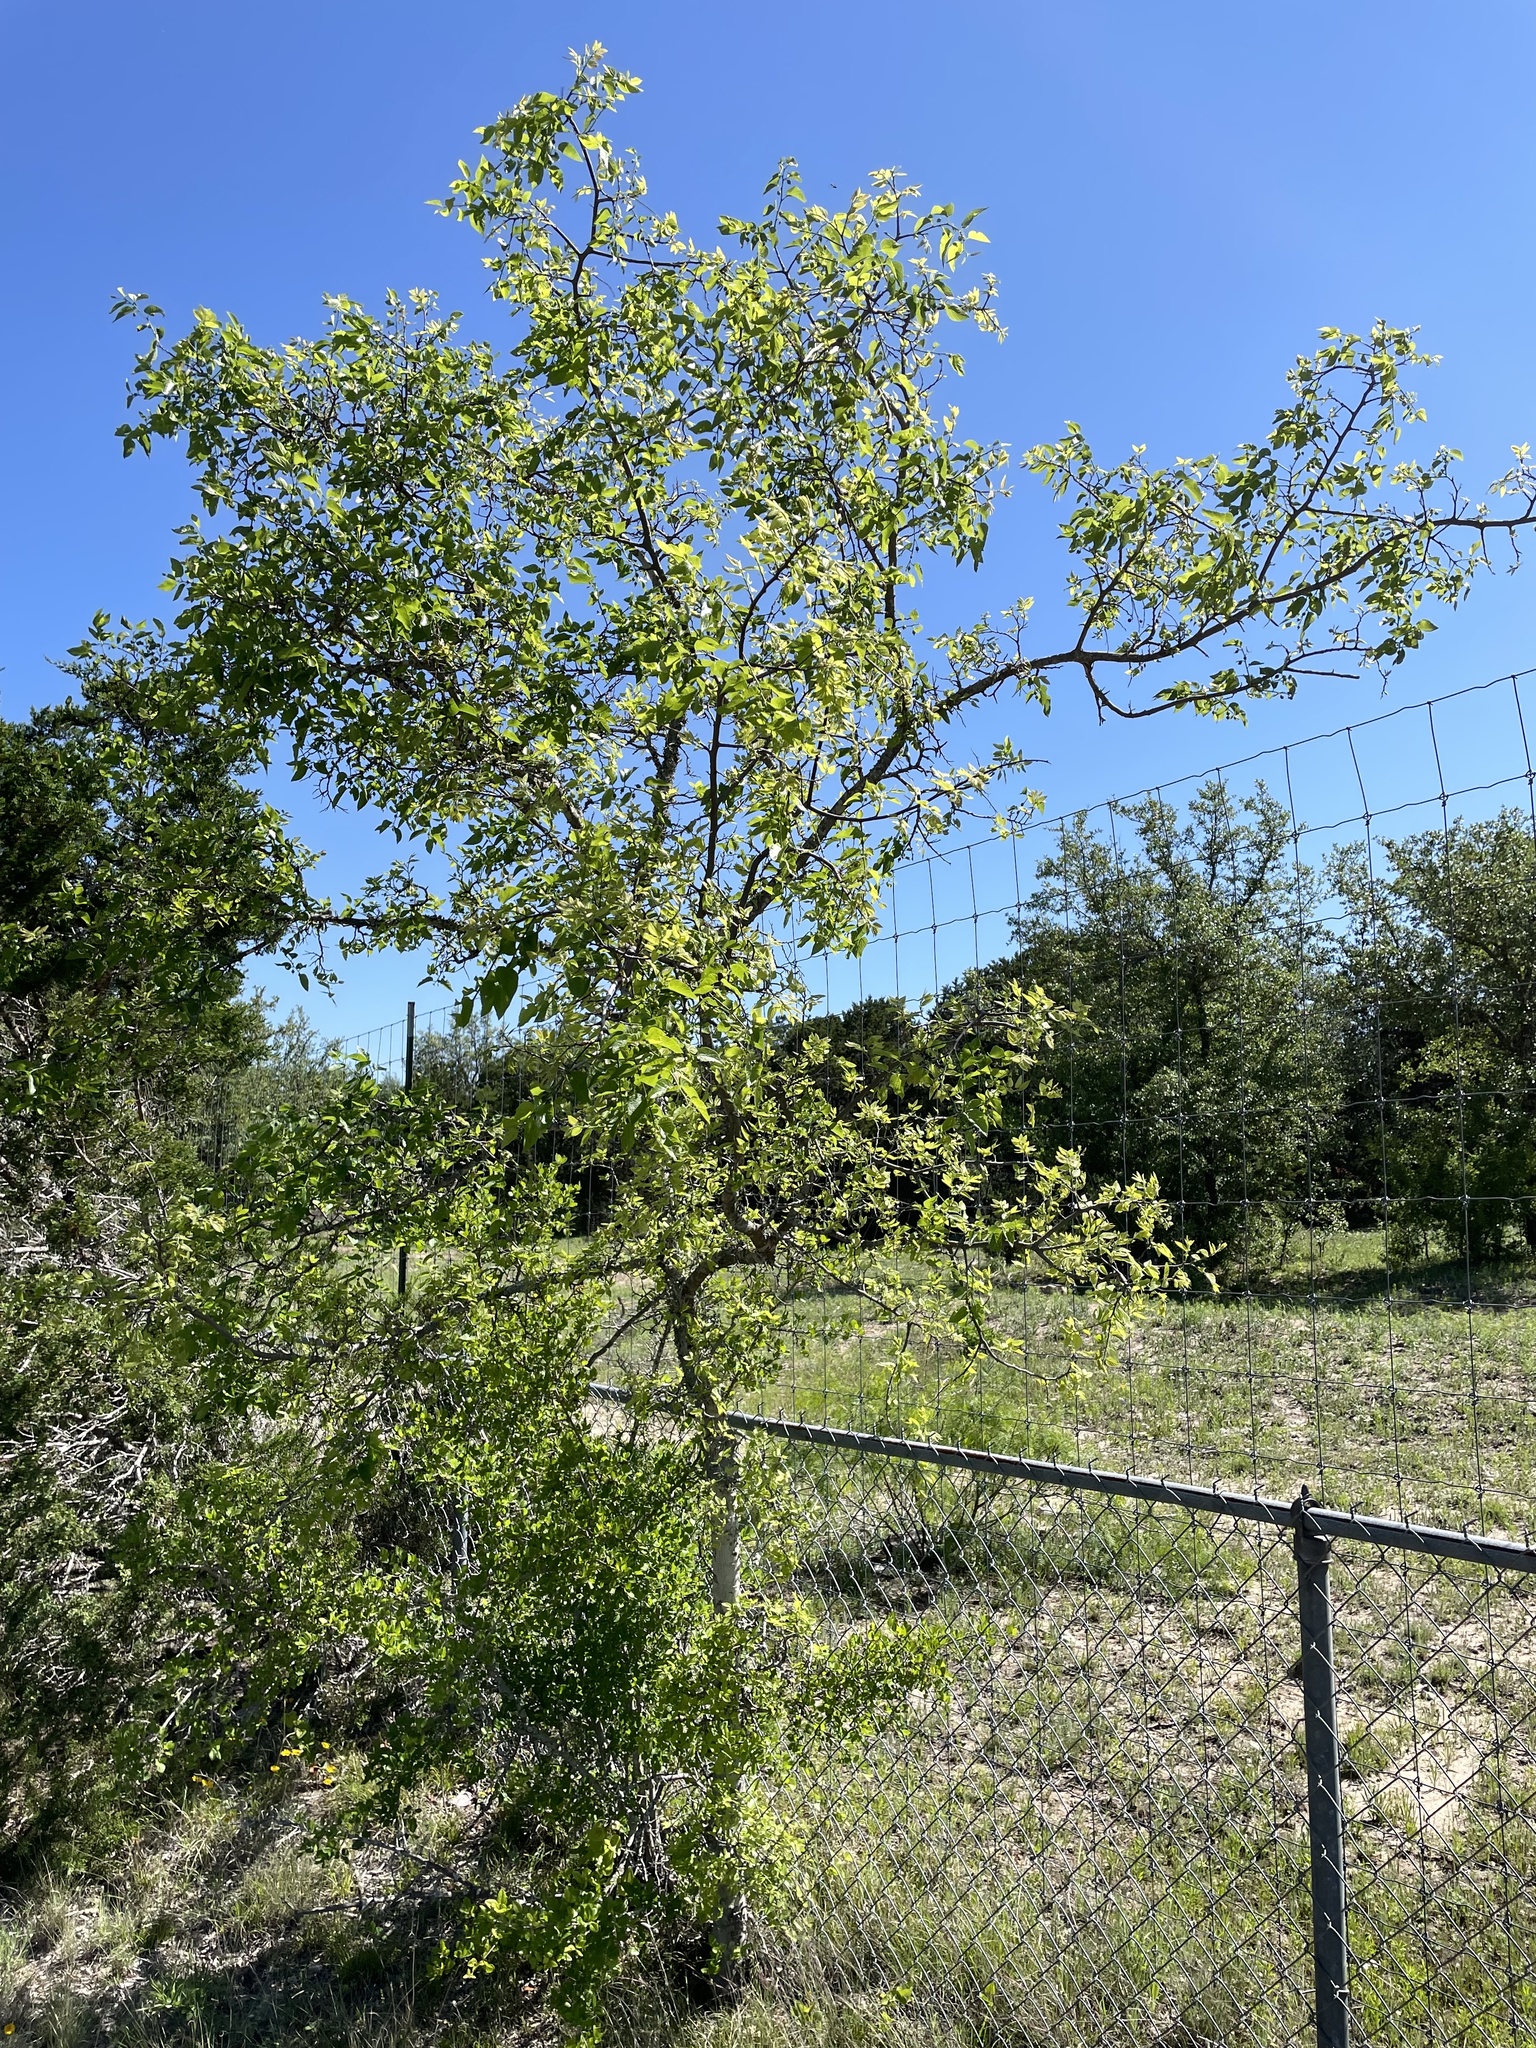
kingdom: Plantae
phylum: Tracheophyta
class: Magnoliopsida
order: Rosales
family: Cannabaceae
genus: Celtis
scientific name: Celtis reticulata
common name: Netleaf hackberry
